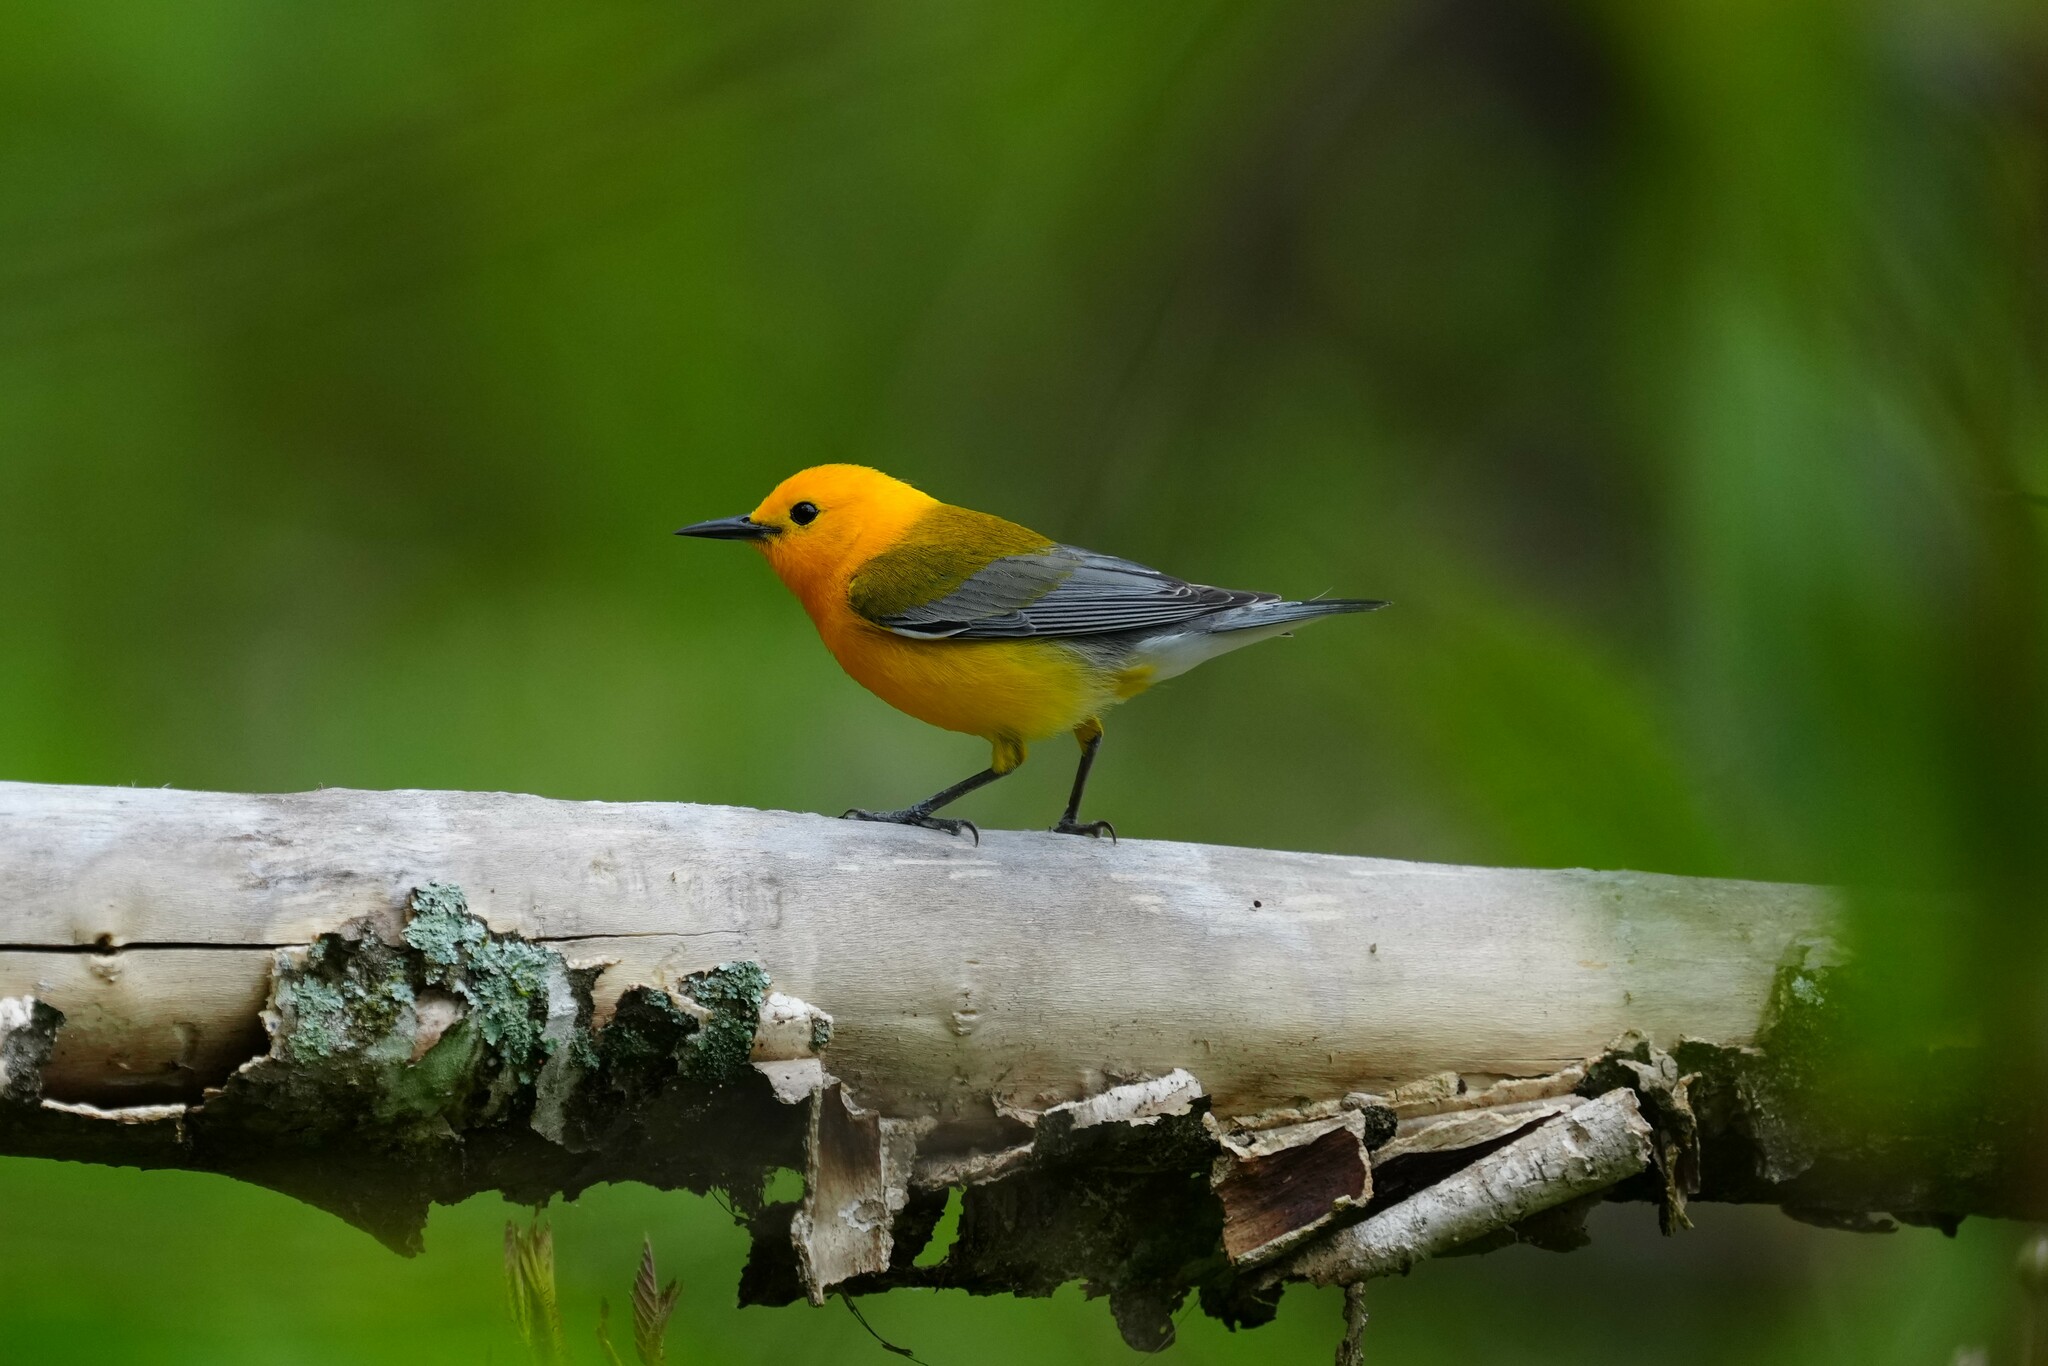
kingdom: Animalia
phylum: Chordata
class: Aves
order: Passeriformes
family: Parulidae
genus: Protonotaria
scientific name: Protonotaria citrea
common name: Prothonotary warbler
